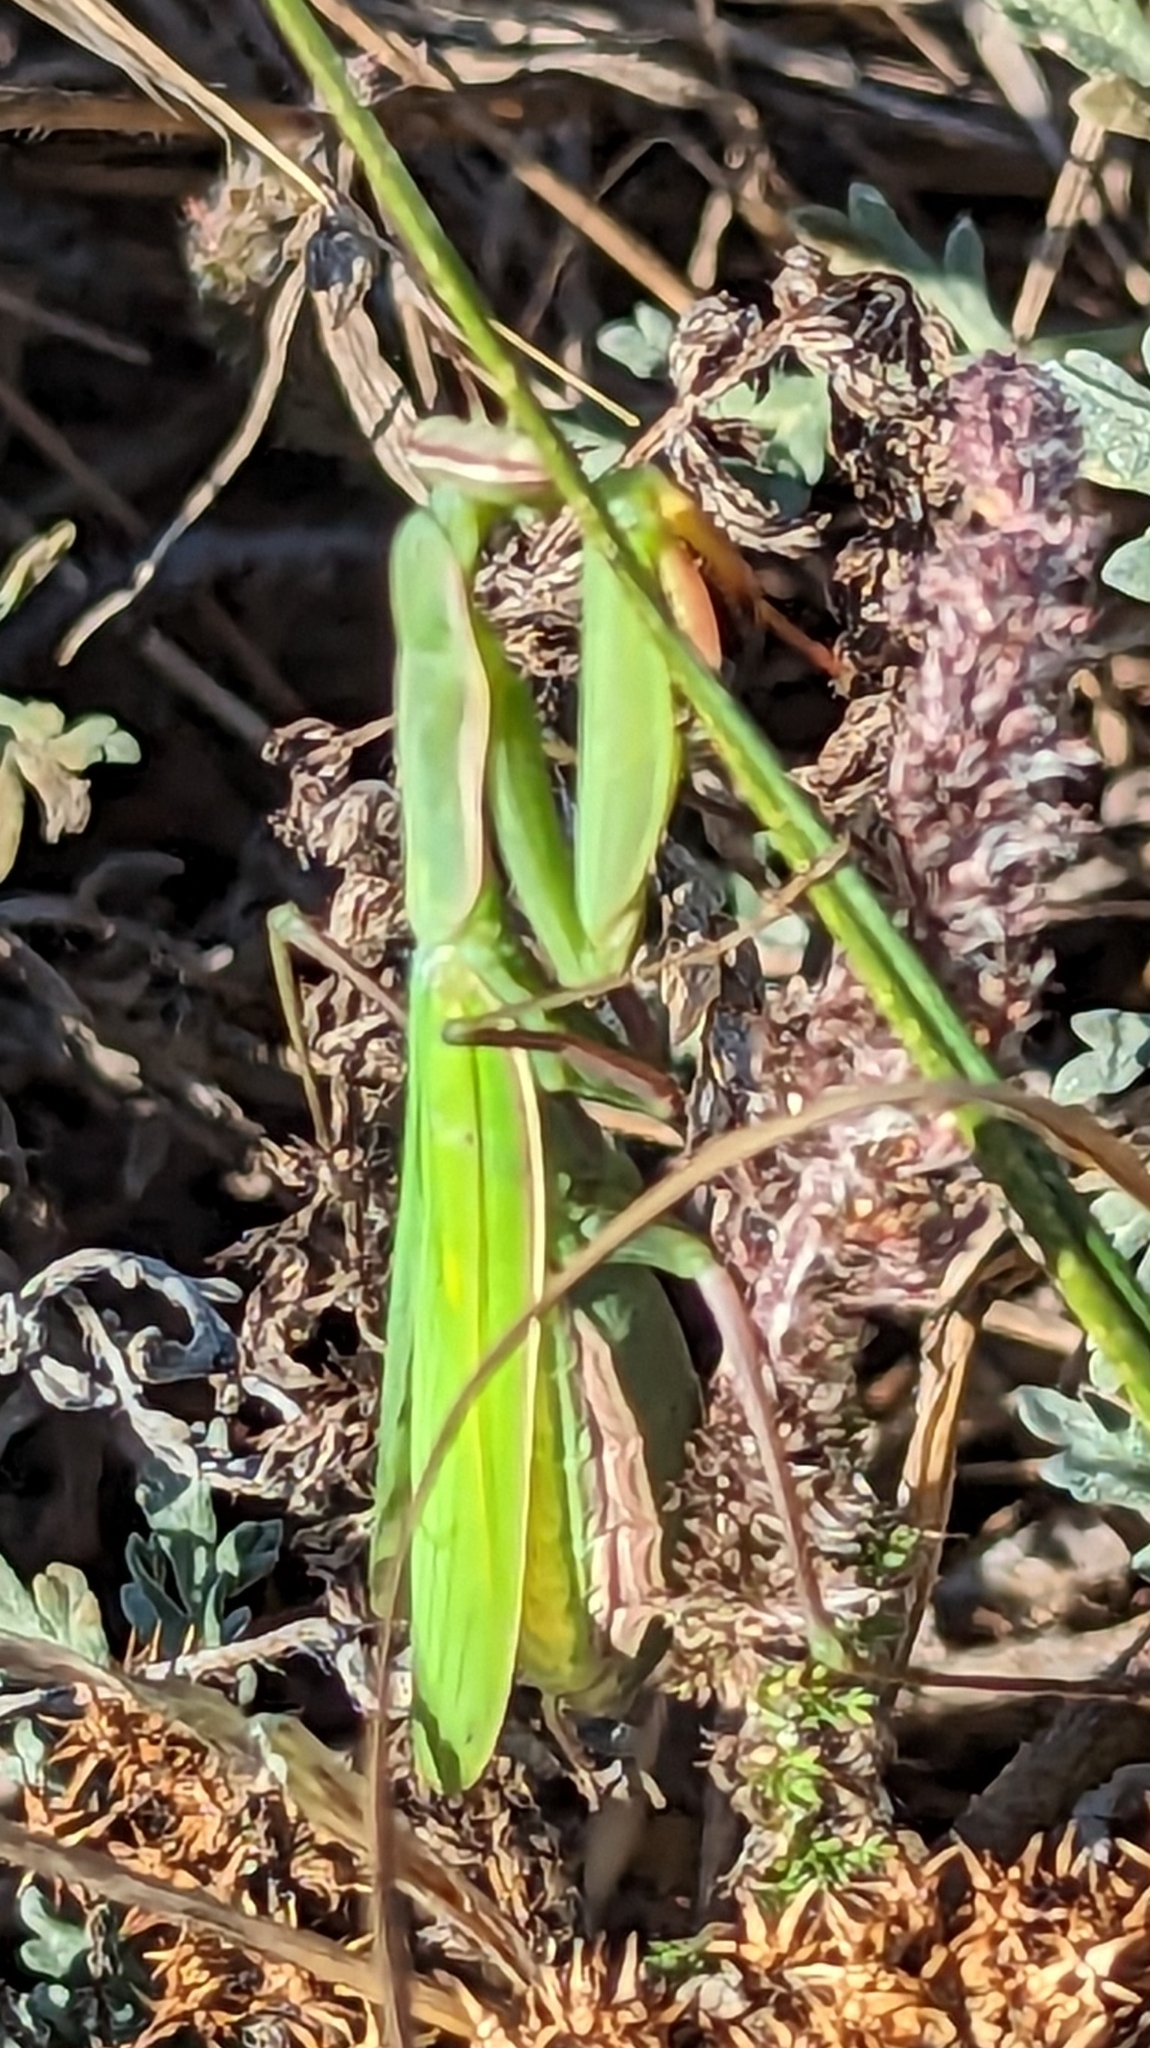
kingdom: Animalia
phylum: Arthropoda
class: Insecta
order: Mantodea
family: Mantidae
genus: Mantis
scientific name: Mantis religiosa
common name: Praying mantis
